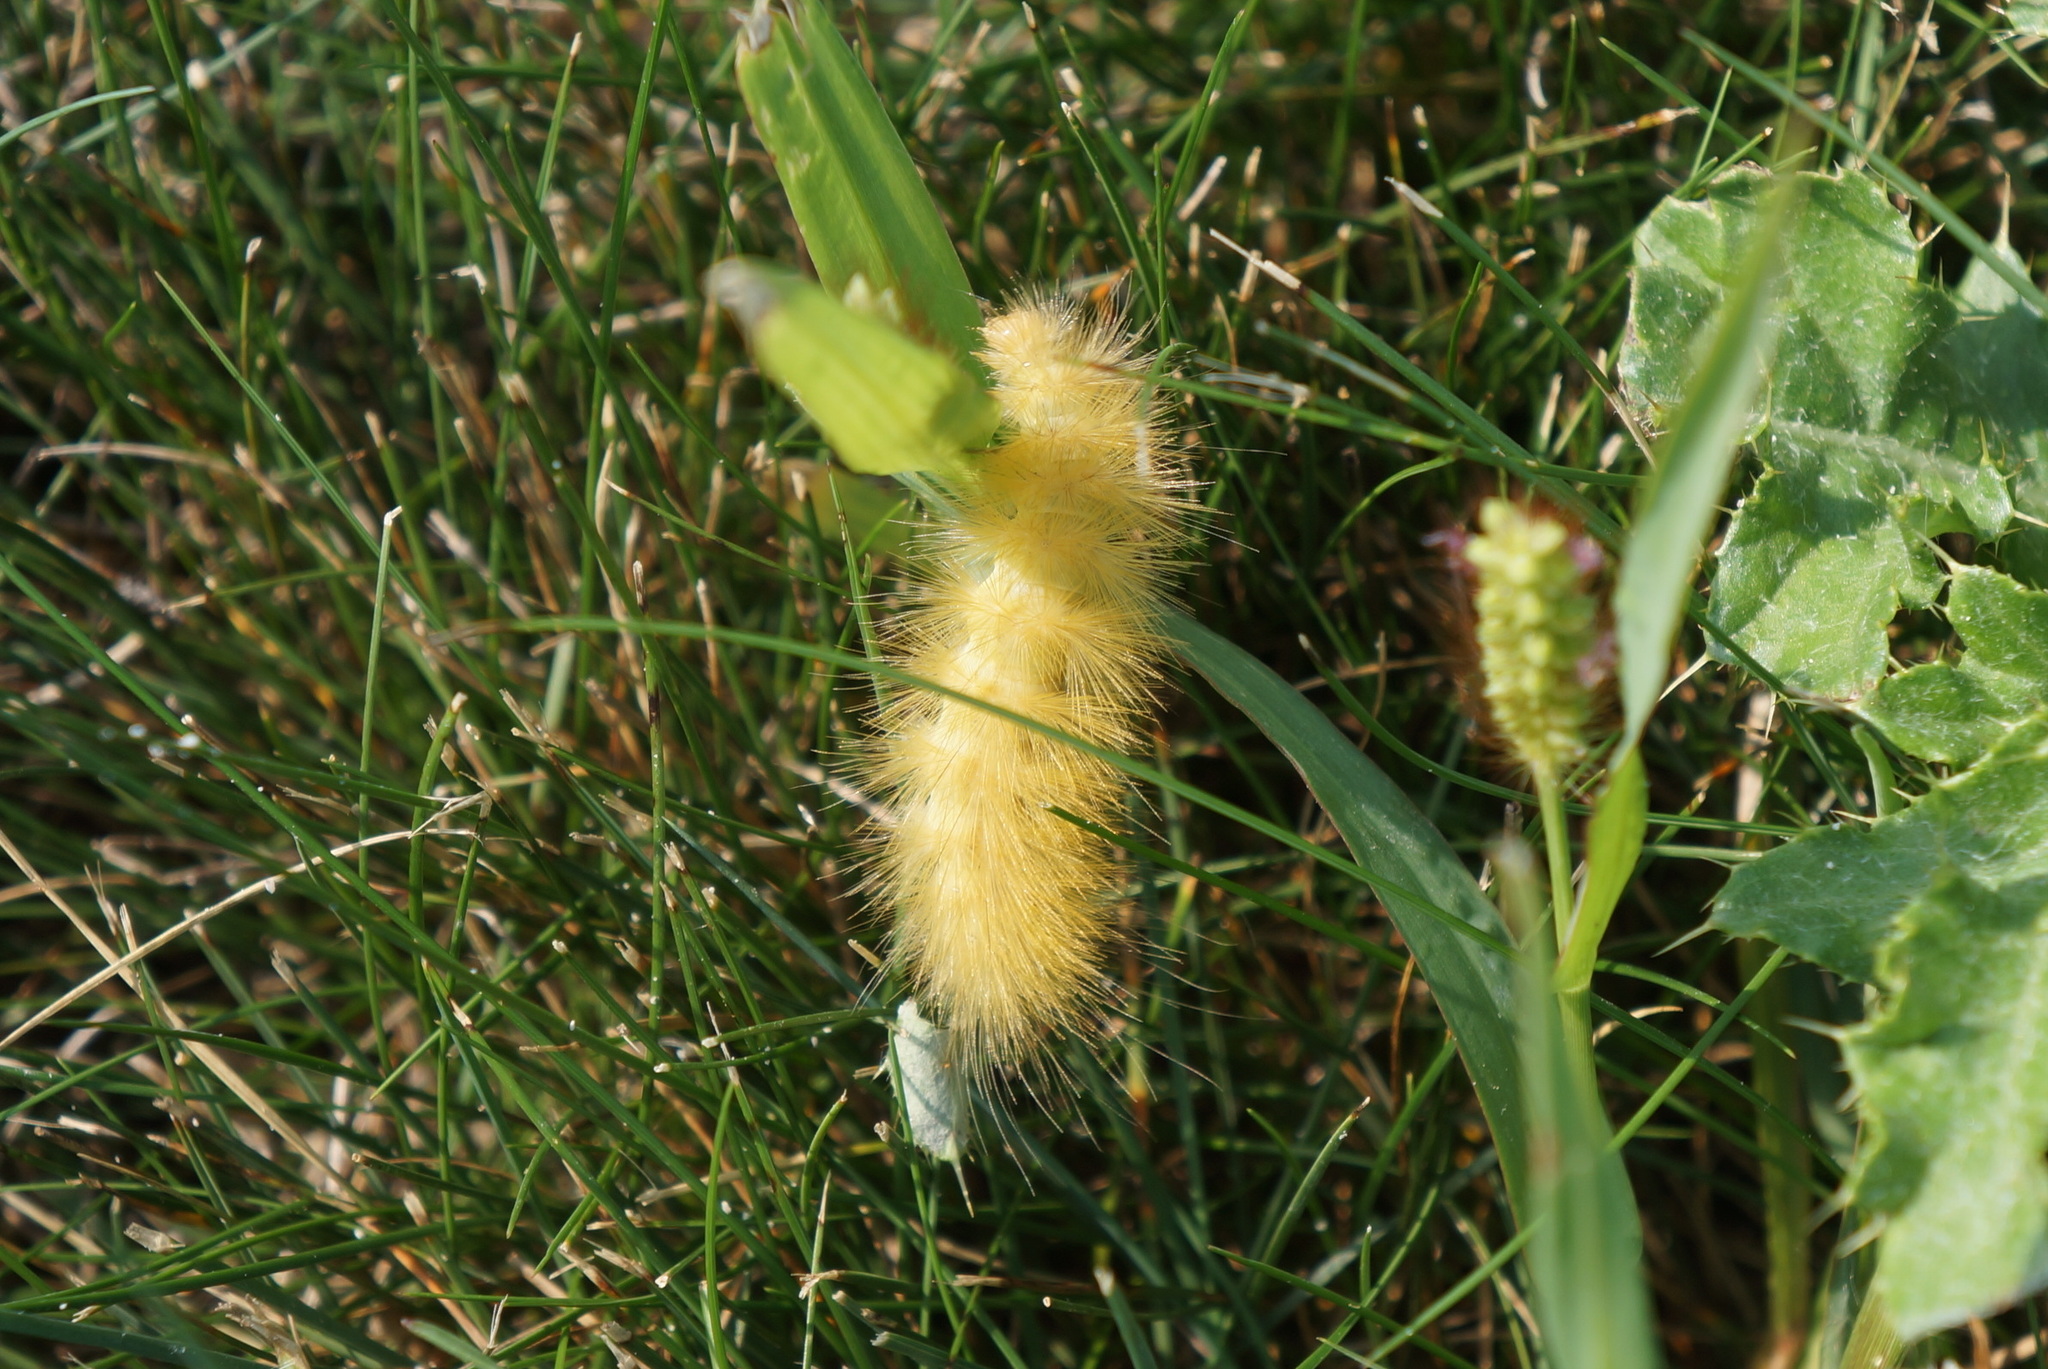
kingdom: Animalia
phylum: Arthropoda
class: Insecta
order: Lepidoptera
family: Erebidae
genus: Spilosoma
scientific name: Spilosoma virginica
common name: Virginia tiger moth
